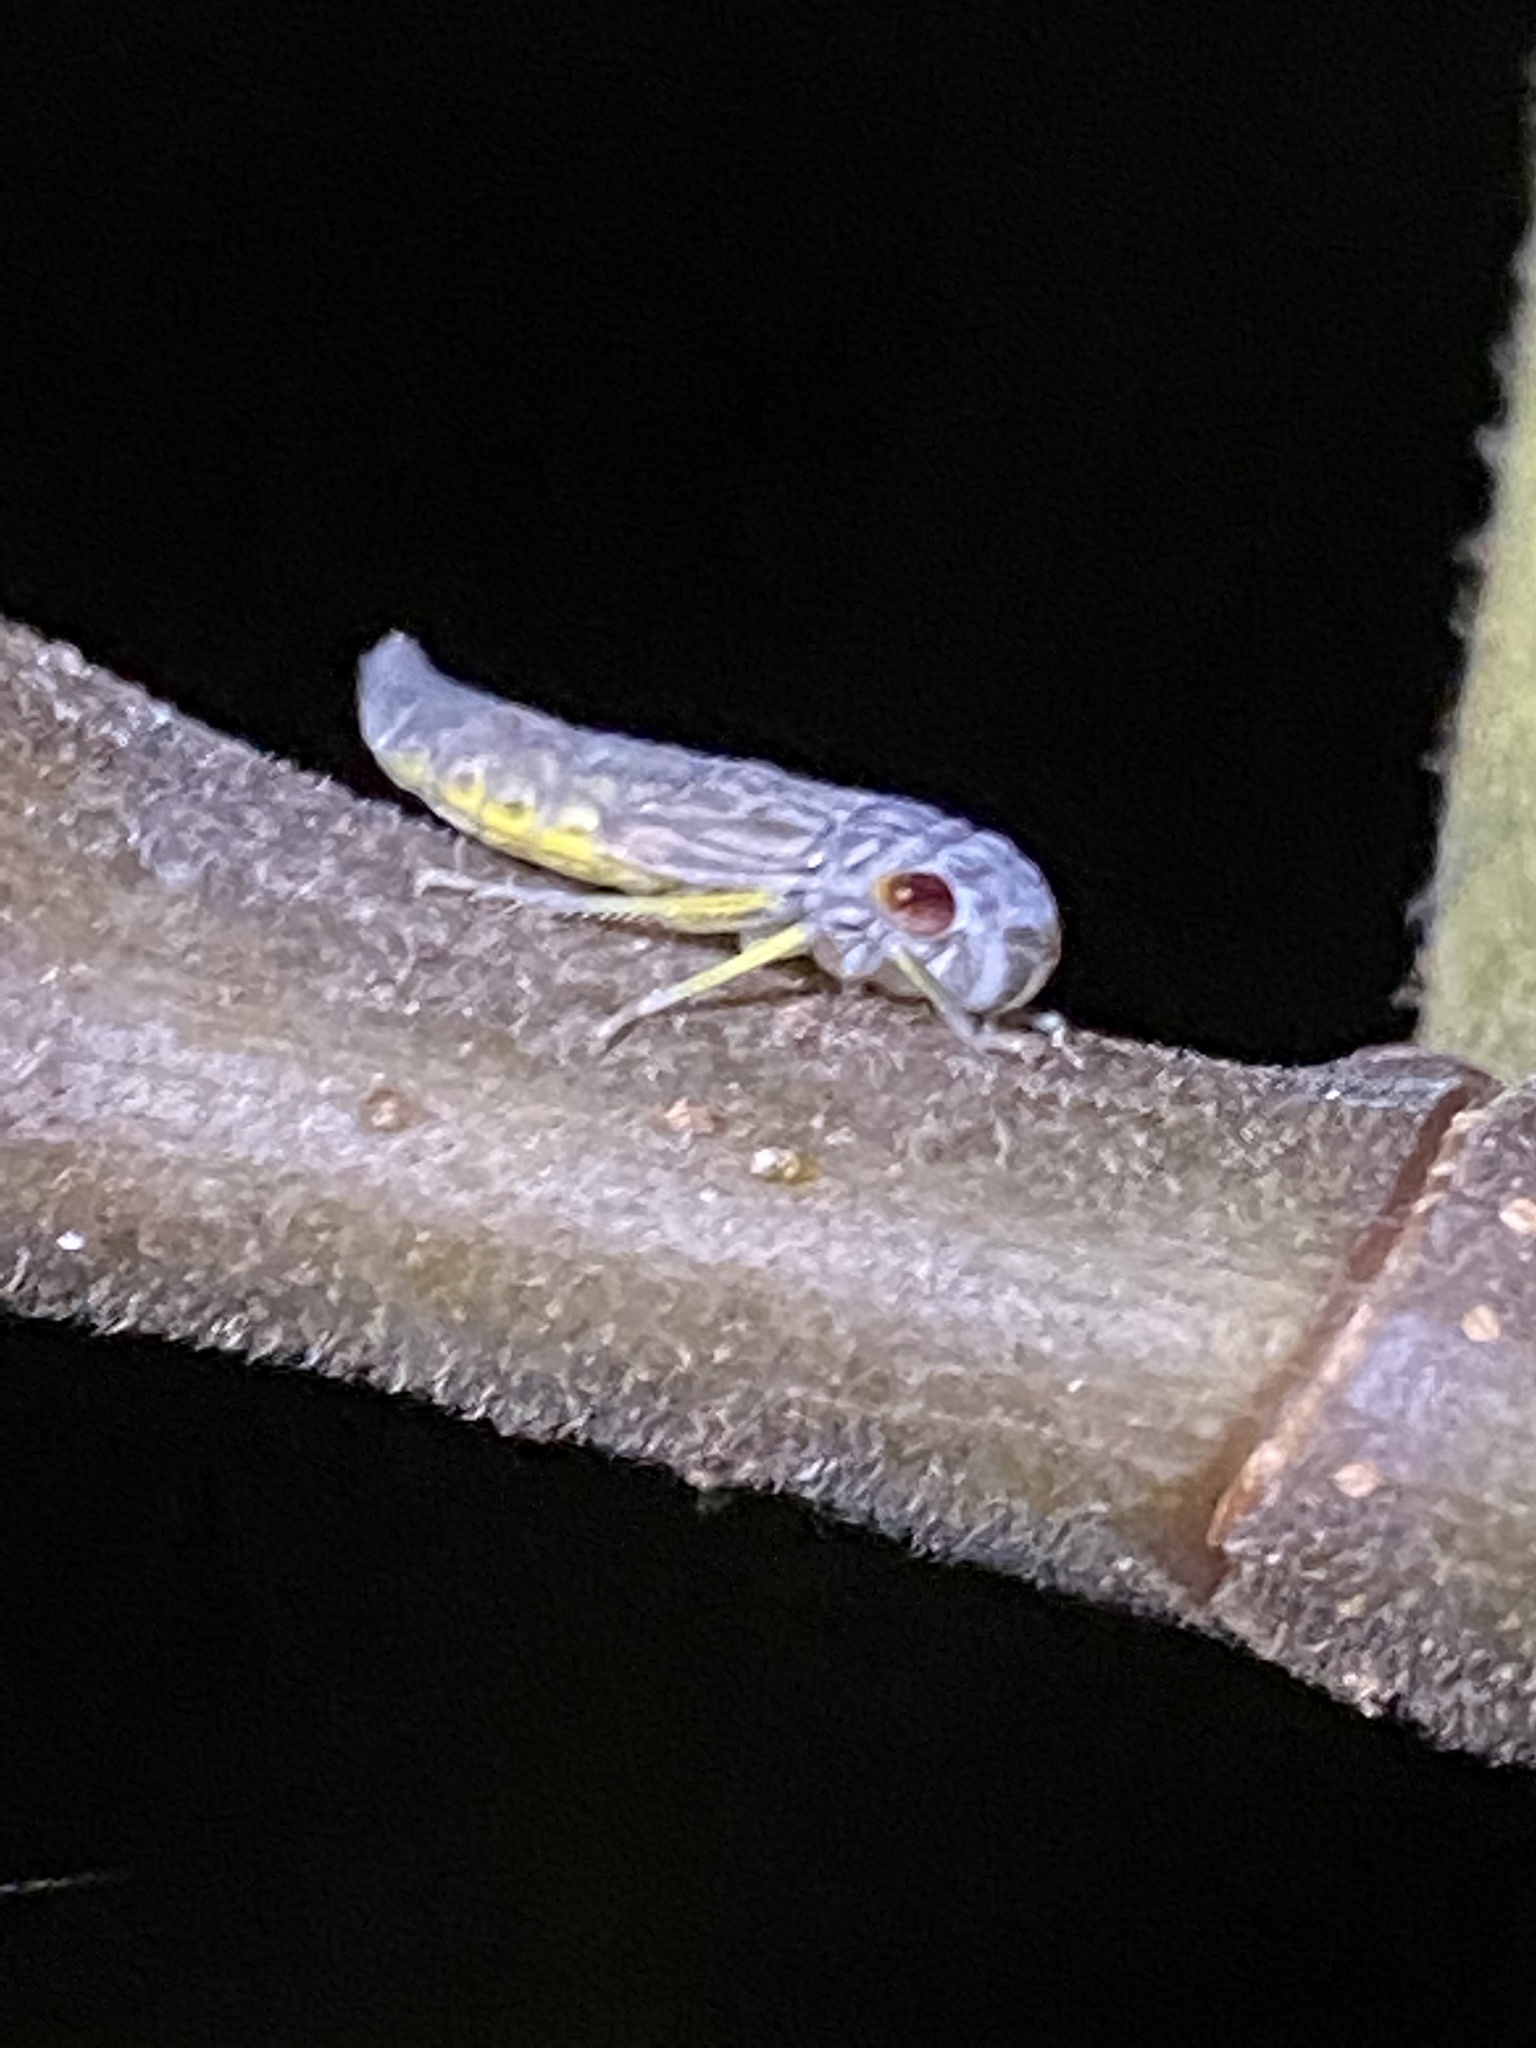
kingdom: Animalia
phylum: Arthropoda
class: Insecta
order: Hemiptera
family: Cicadellidae
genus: Oncometopia
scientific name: Oncometopia orbona
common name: Broad-headed sharpshooter
